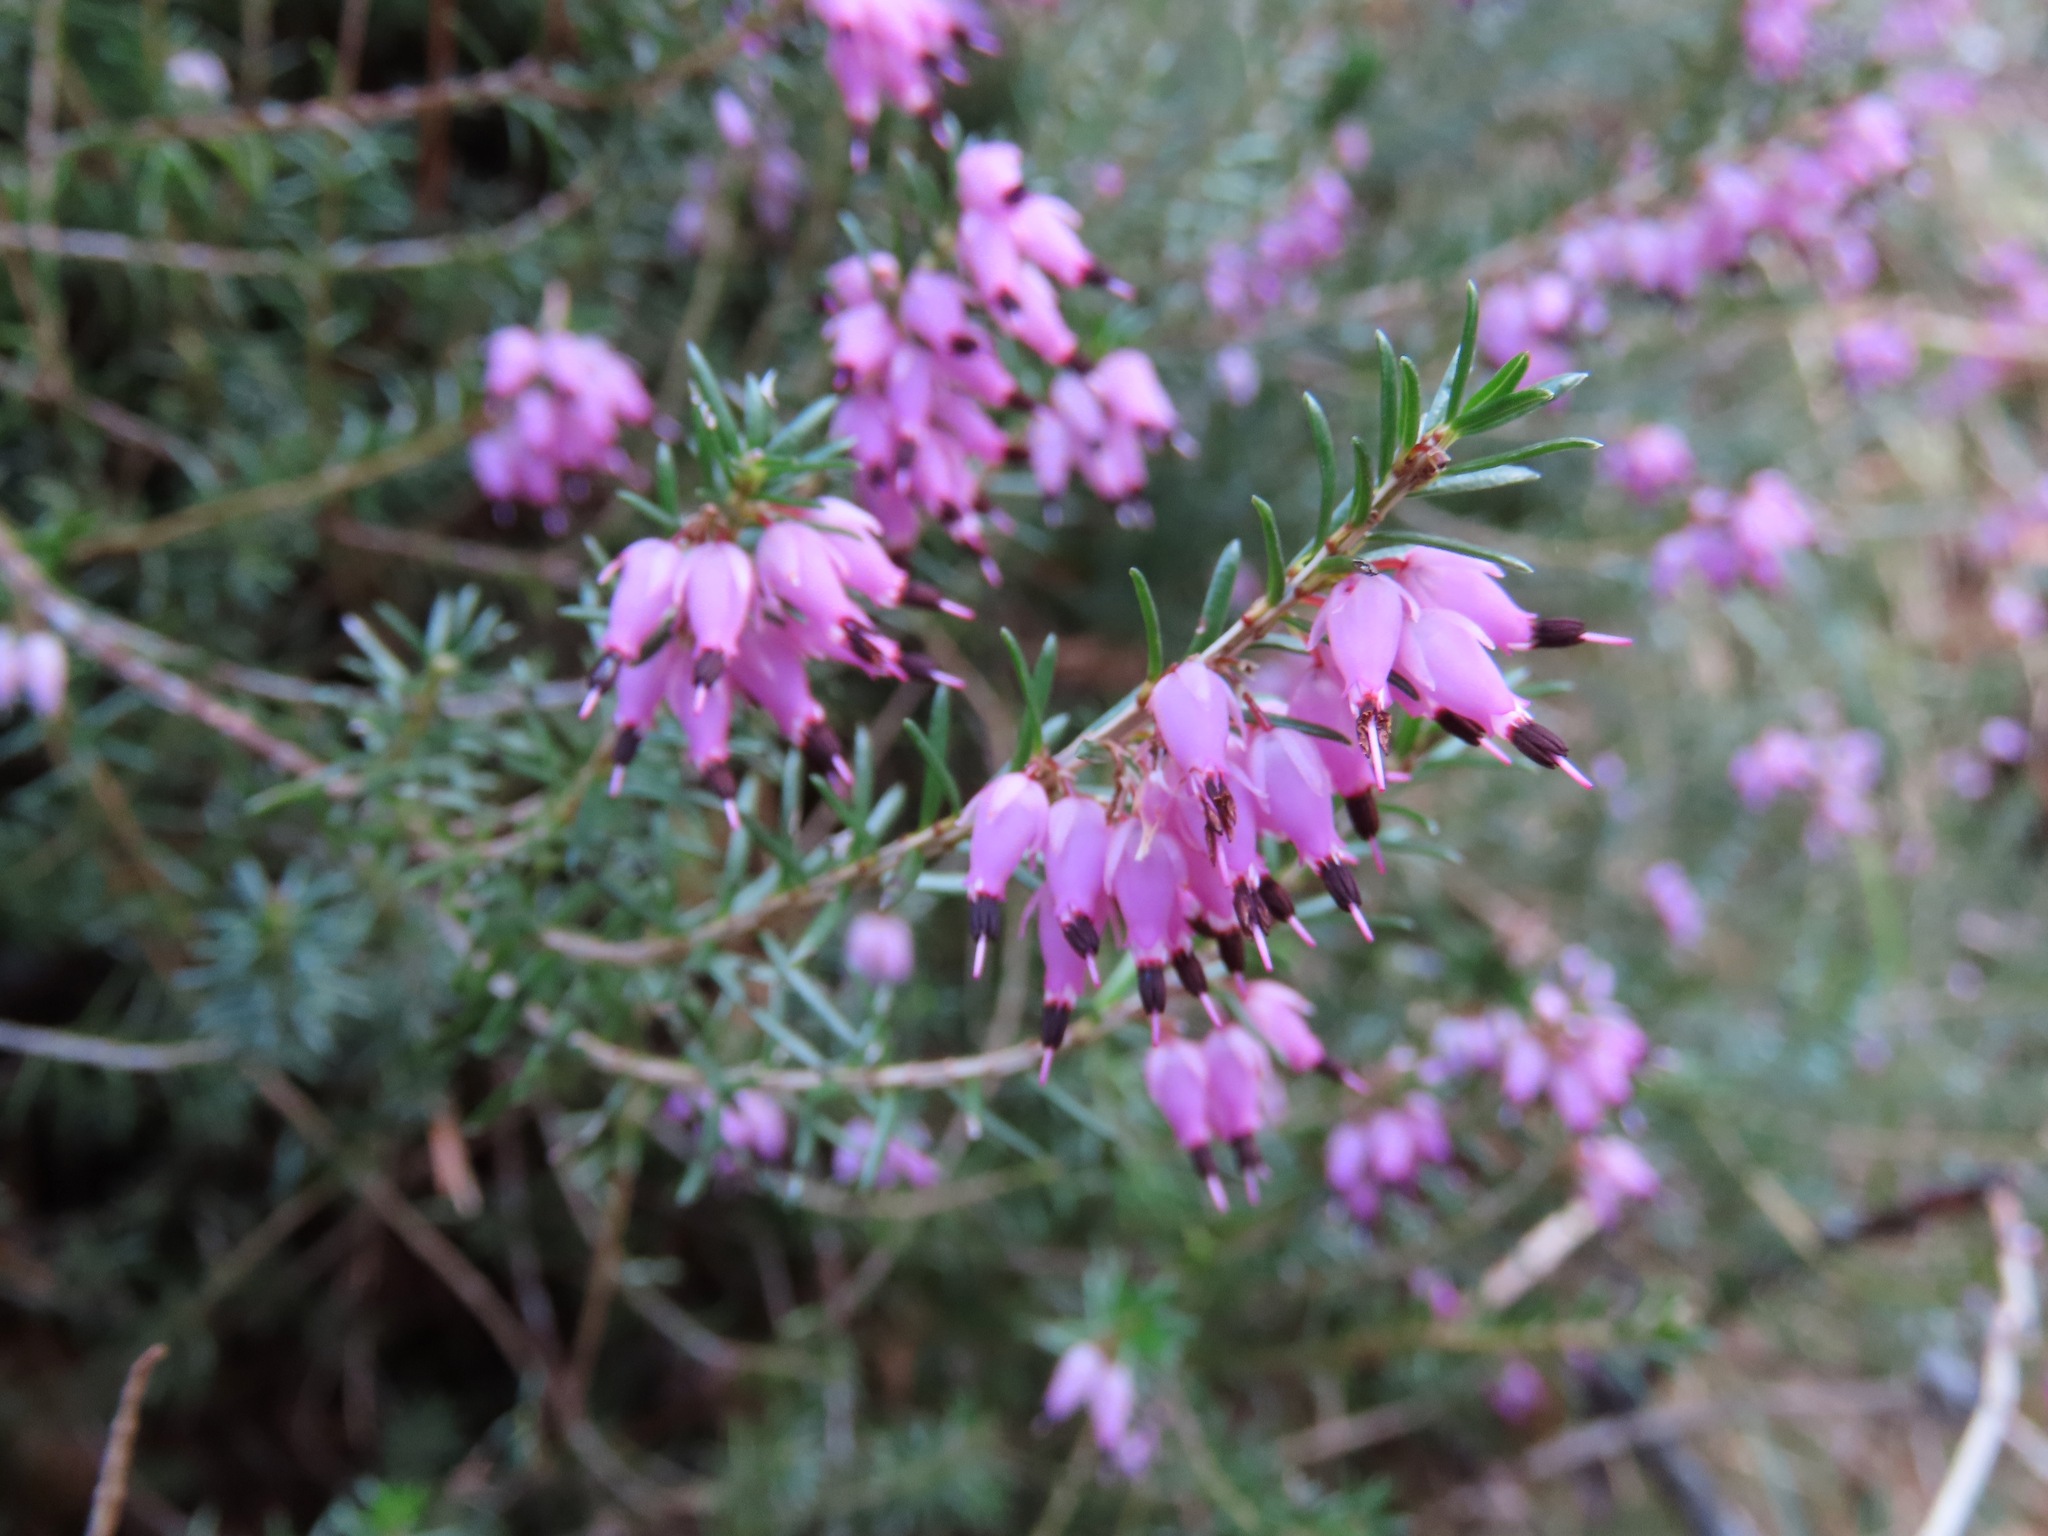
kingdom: Plantae
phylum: Tracheophyta
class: Magnoliopsida
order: Ericales
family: Ericaceae
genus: Erica
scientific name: Erica carnea
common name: Winter heath
